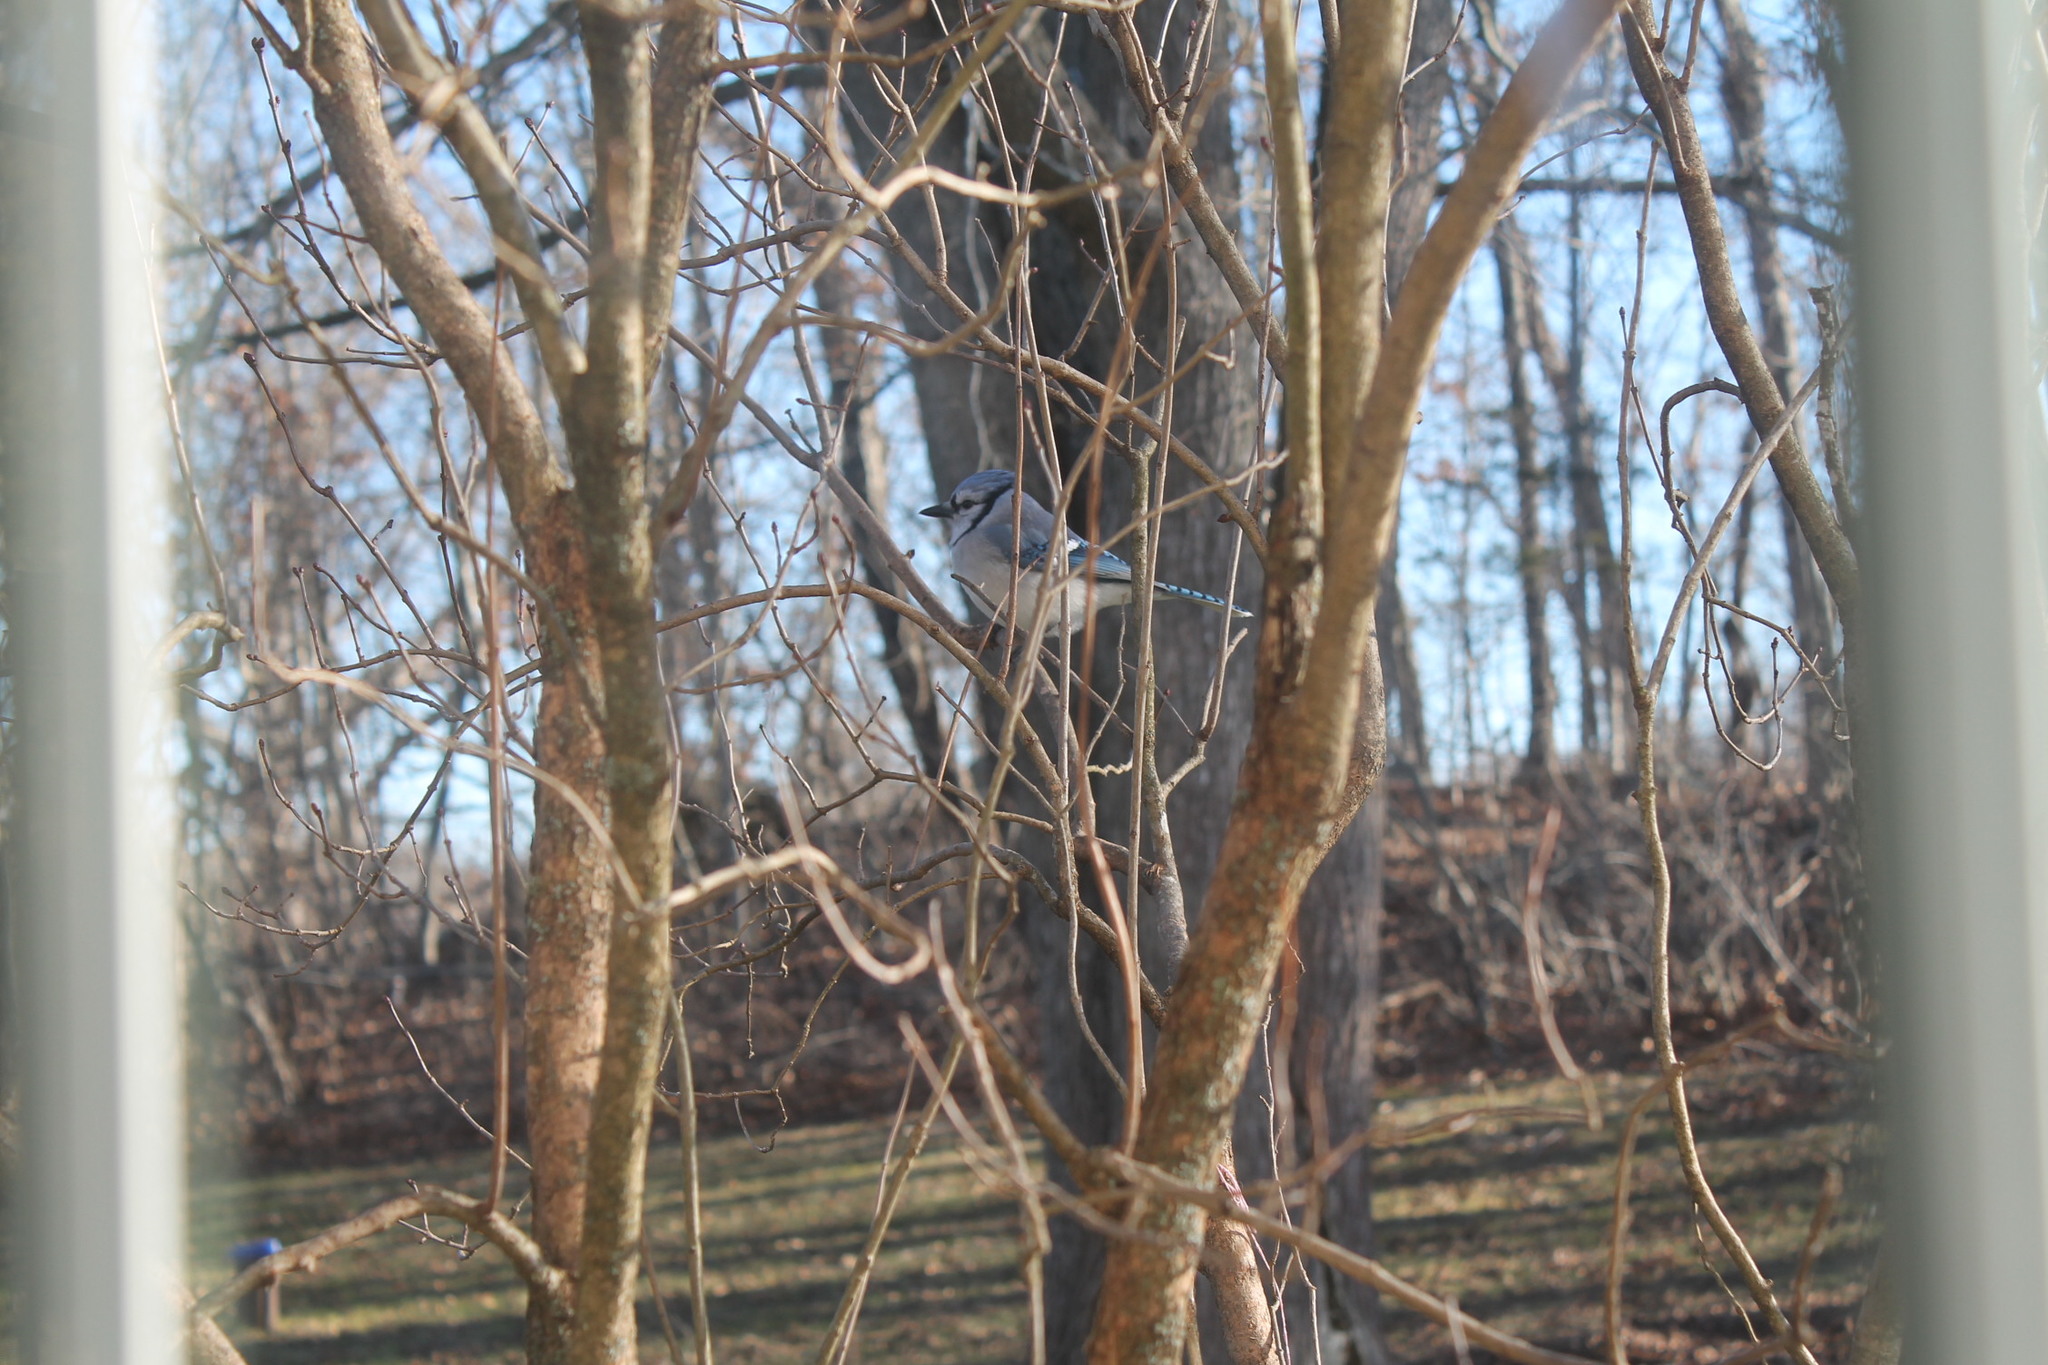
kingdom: Animalia
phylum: Chordata
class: Aves
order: Passeriformes
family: Corvidae
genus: Cyanocitta
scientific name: Cyanocitta cristata
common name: Blue jay
